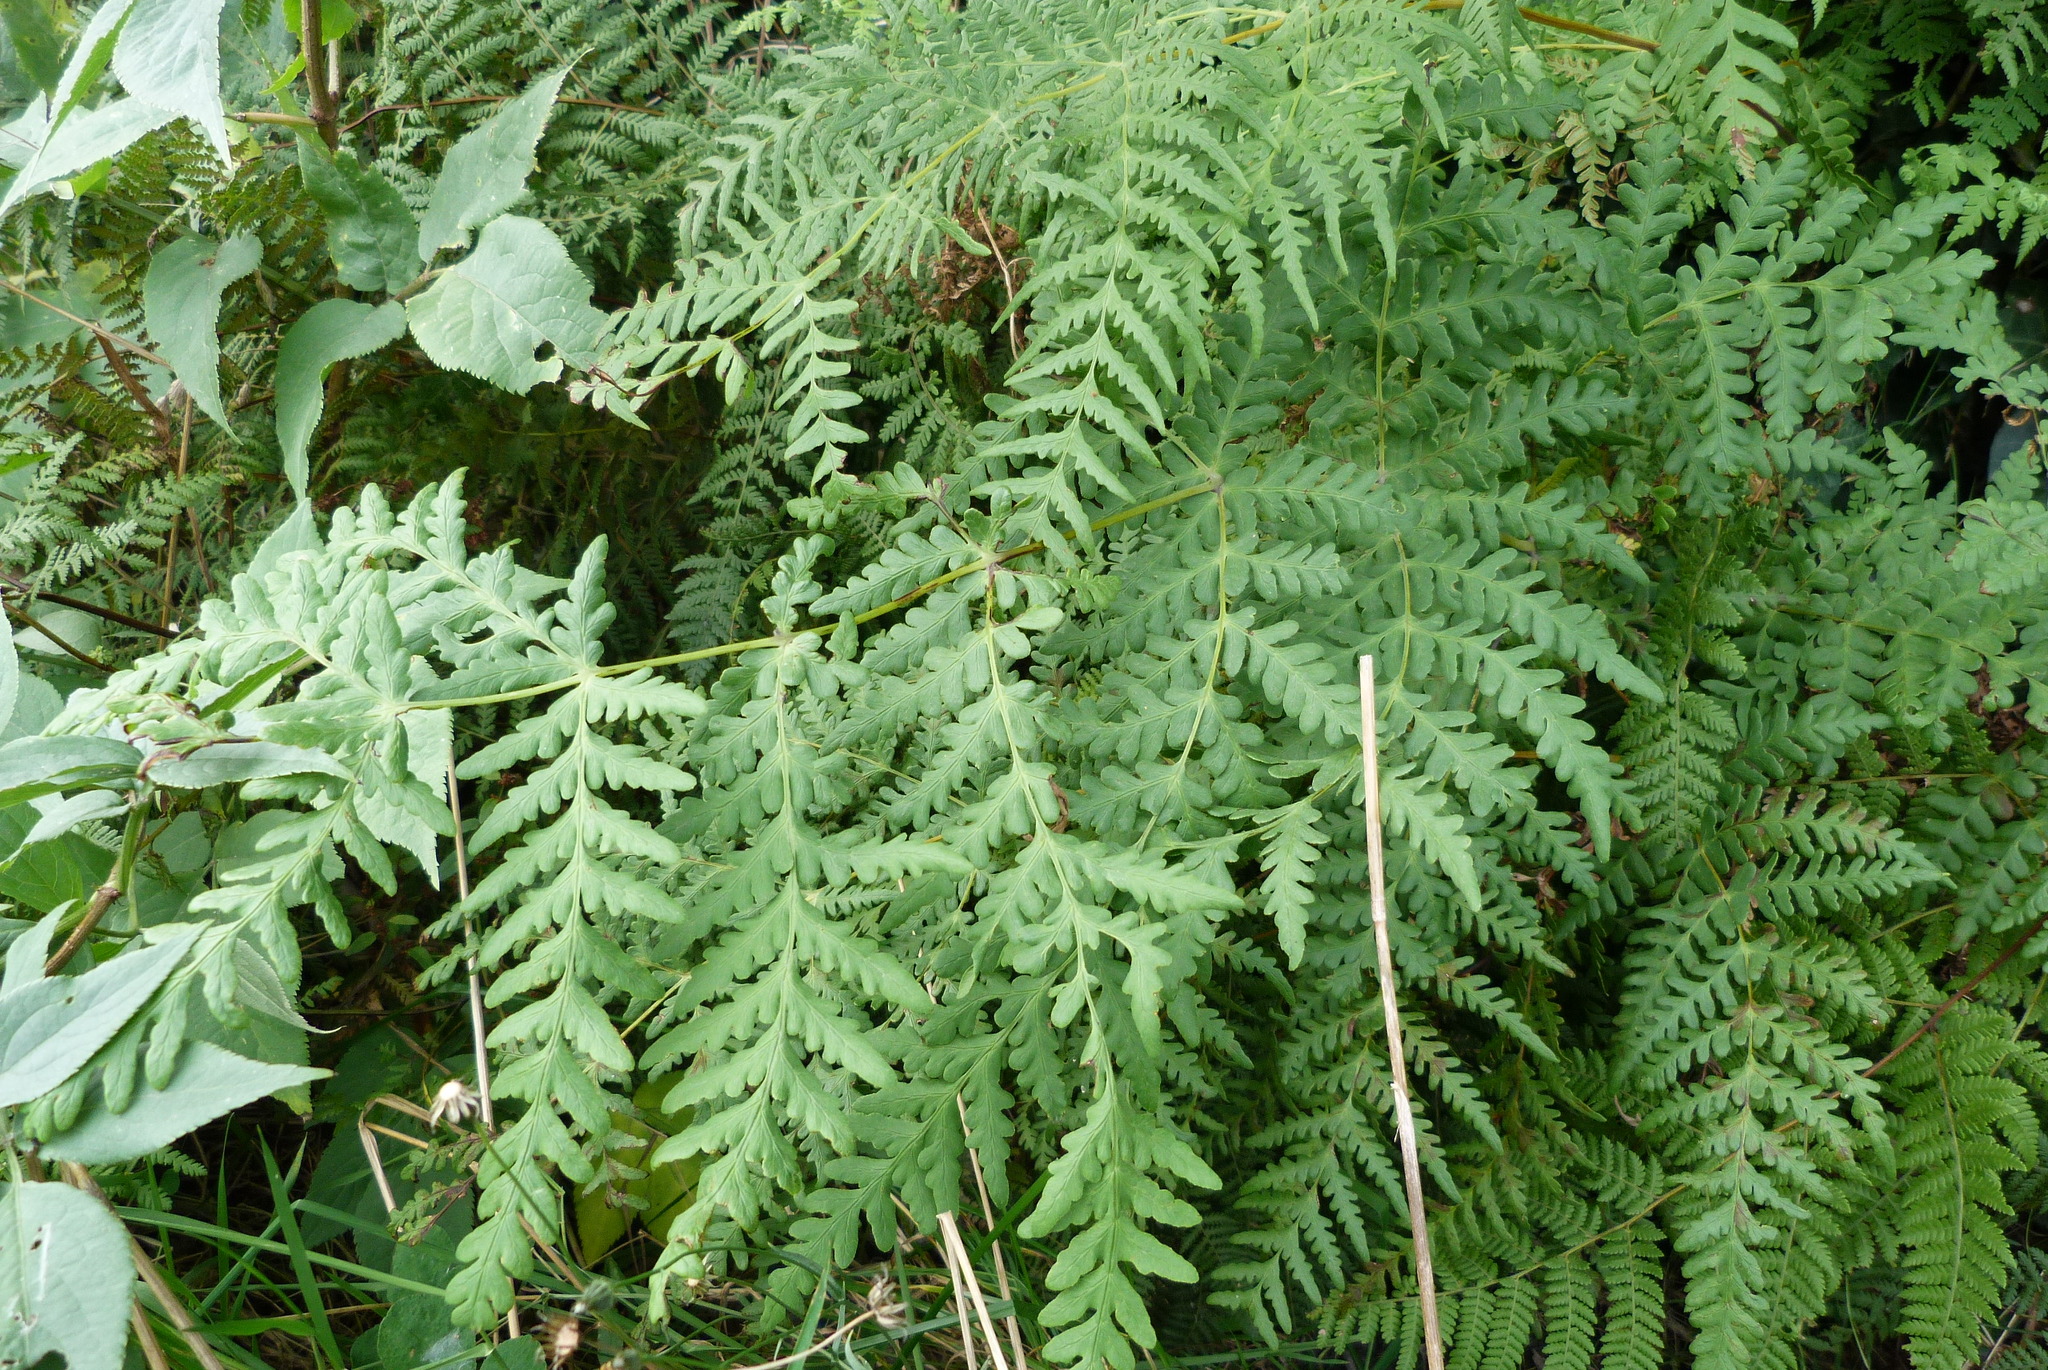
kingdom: Plantae
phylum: Tracheophyta
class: Polypodiopsida
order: Polypodiales
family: Dennstaedtiaceae
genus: Histiopteris
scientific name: Histiopteris incisa
